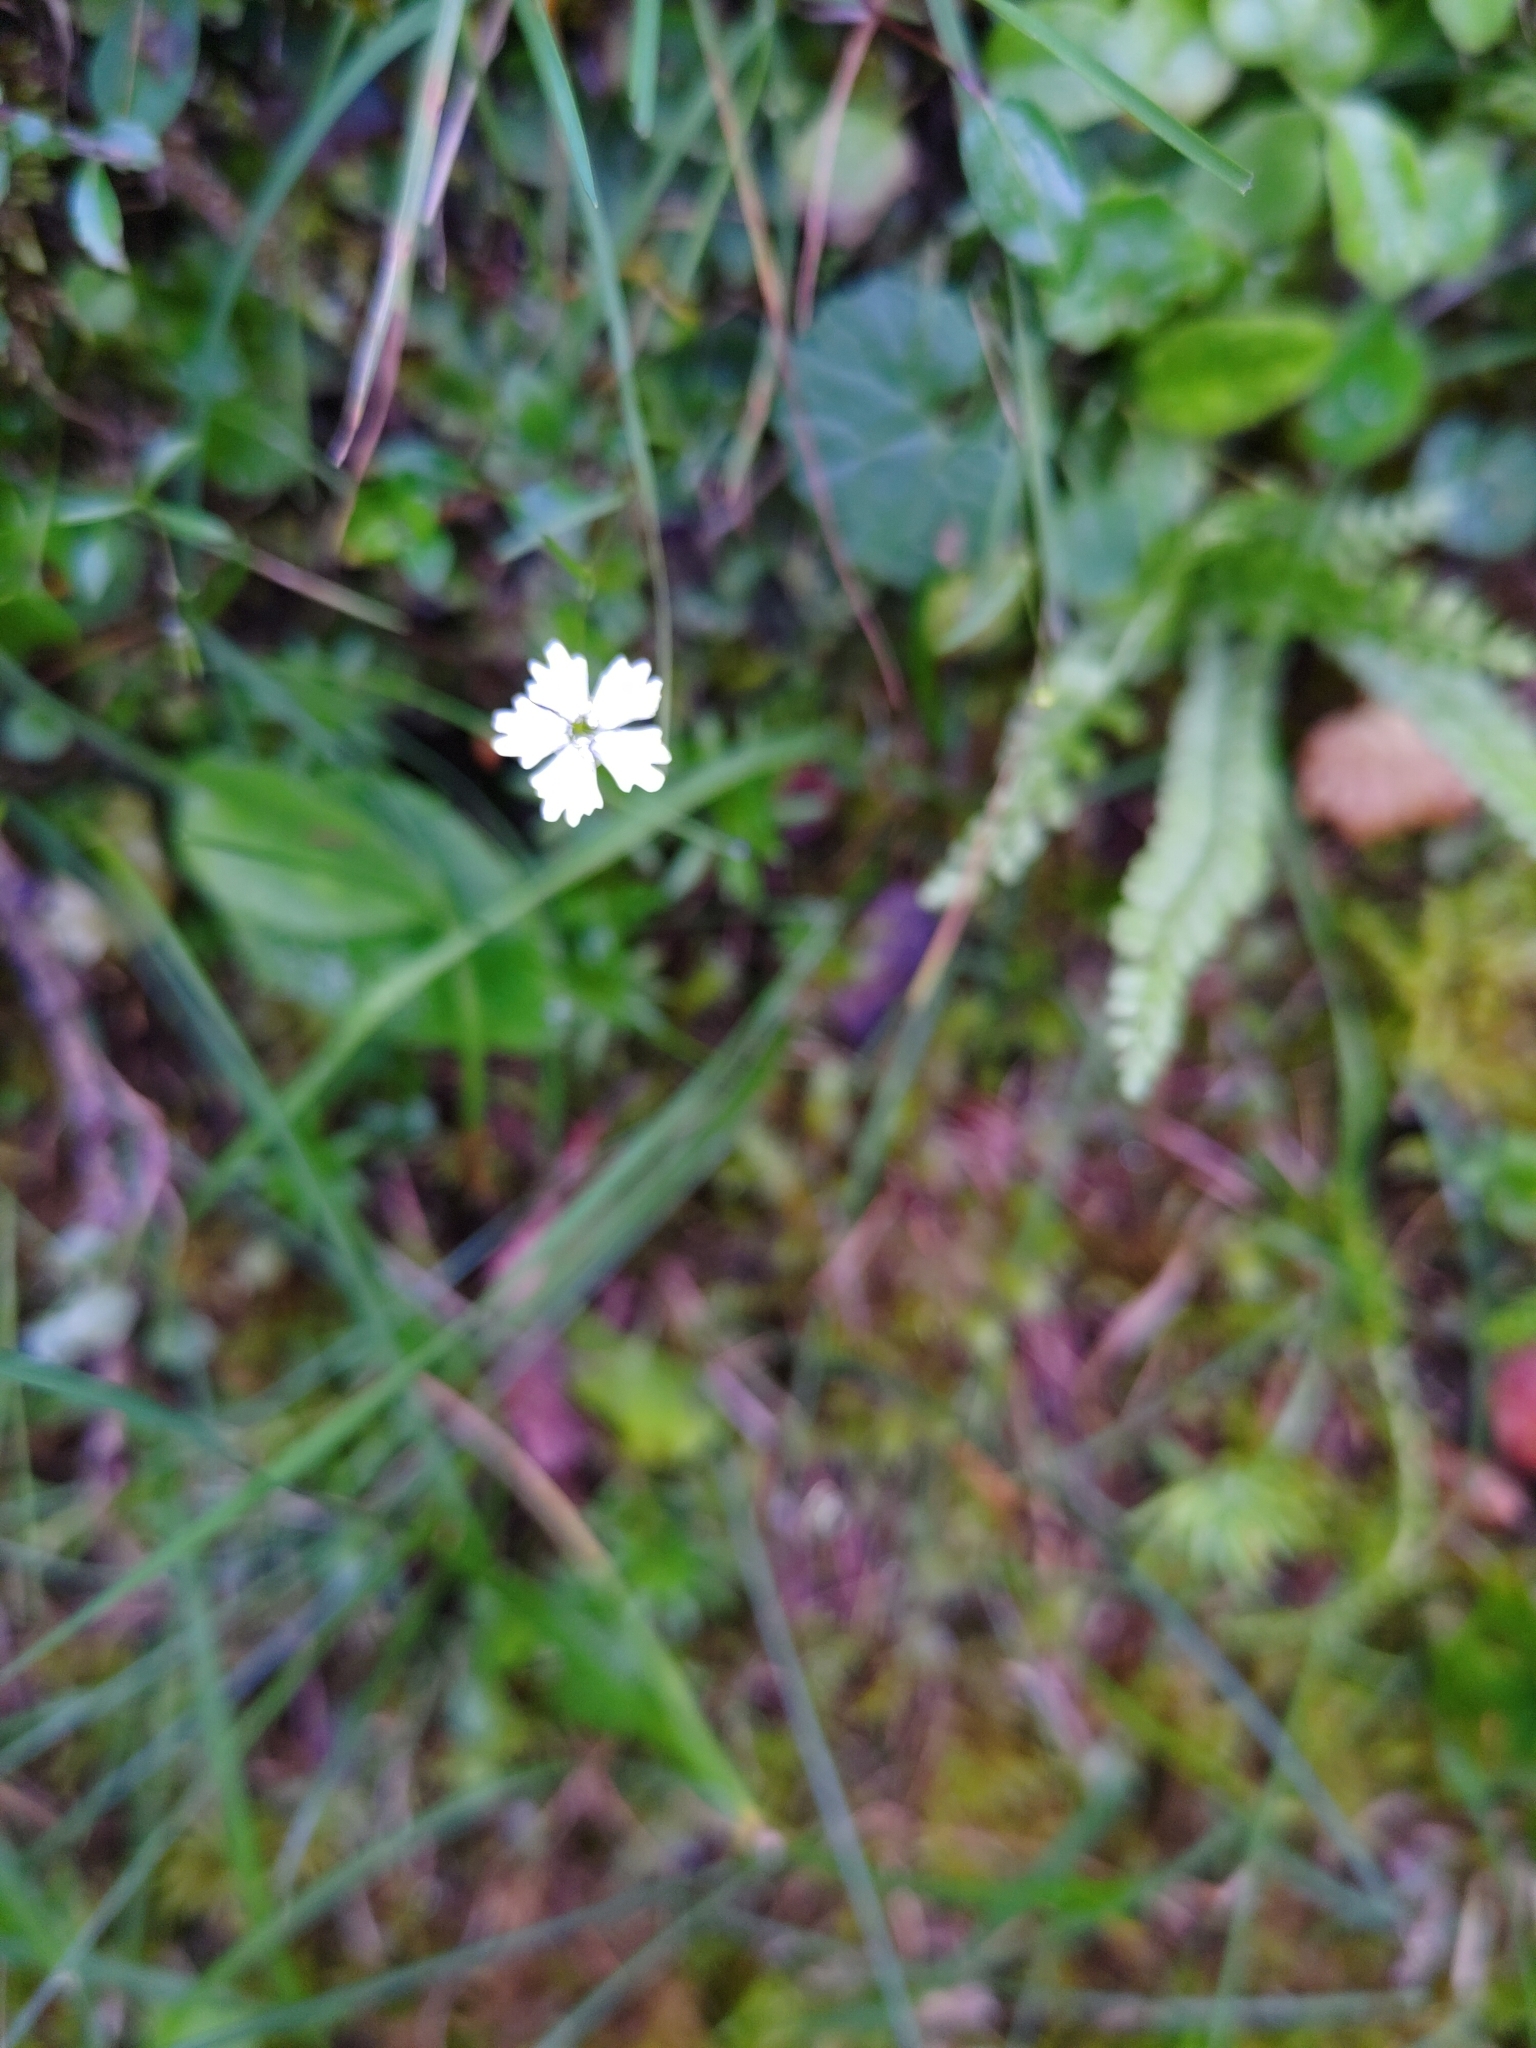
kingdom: Plantae
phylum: Tracheophyta
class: Magnoliopsida
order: Caryophyllales
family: Caryophyllaceae
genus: Heliosperma
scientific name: Heliosperma pusillum
